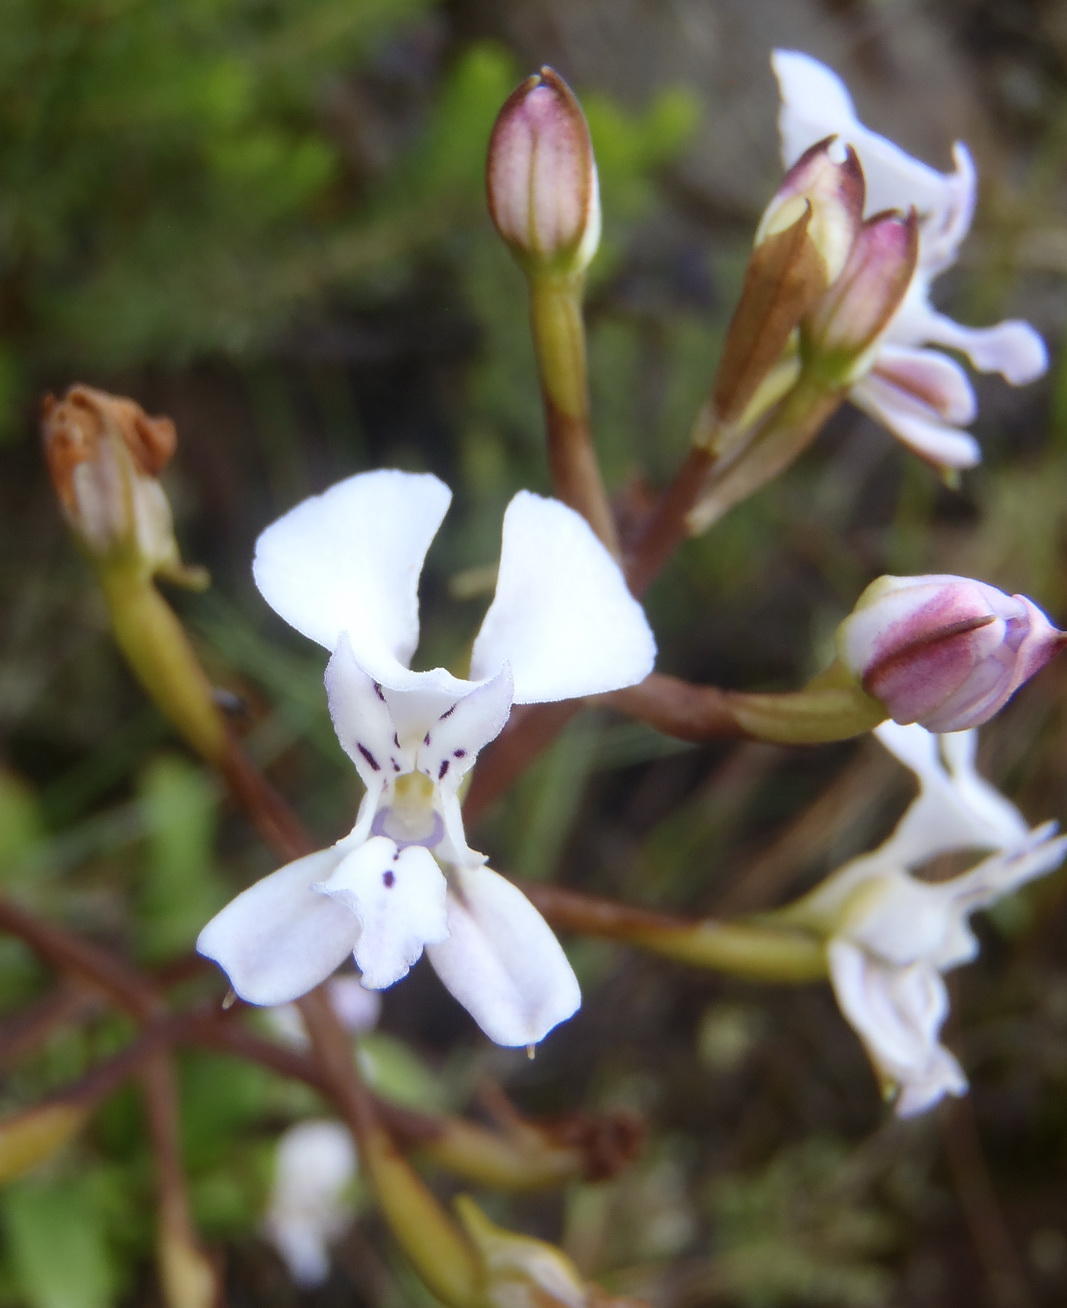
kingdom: Plantae
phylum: Tracheophyta
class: Liliopsida
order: Asparagales
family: Orchidaceae
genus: Disa
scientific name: Disa sagittalis
